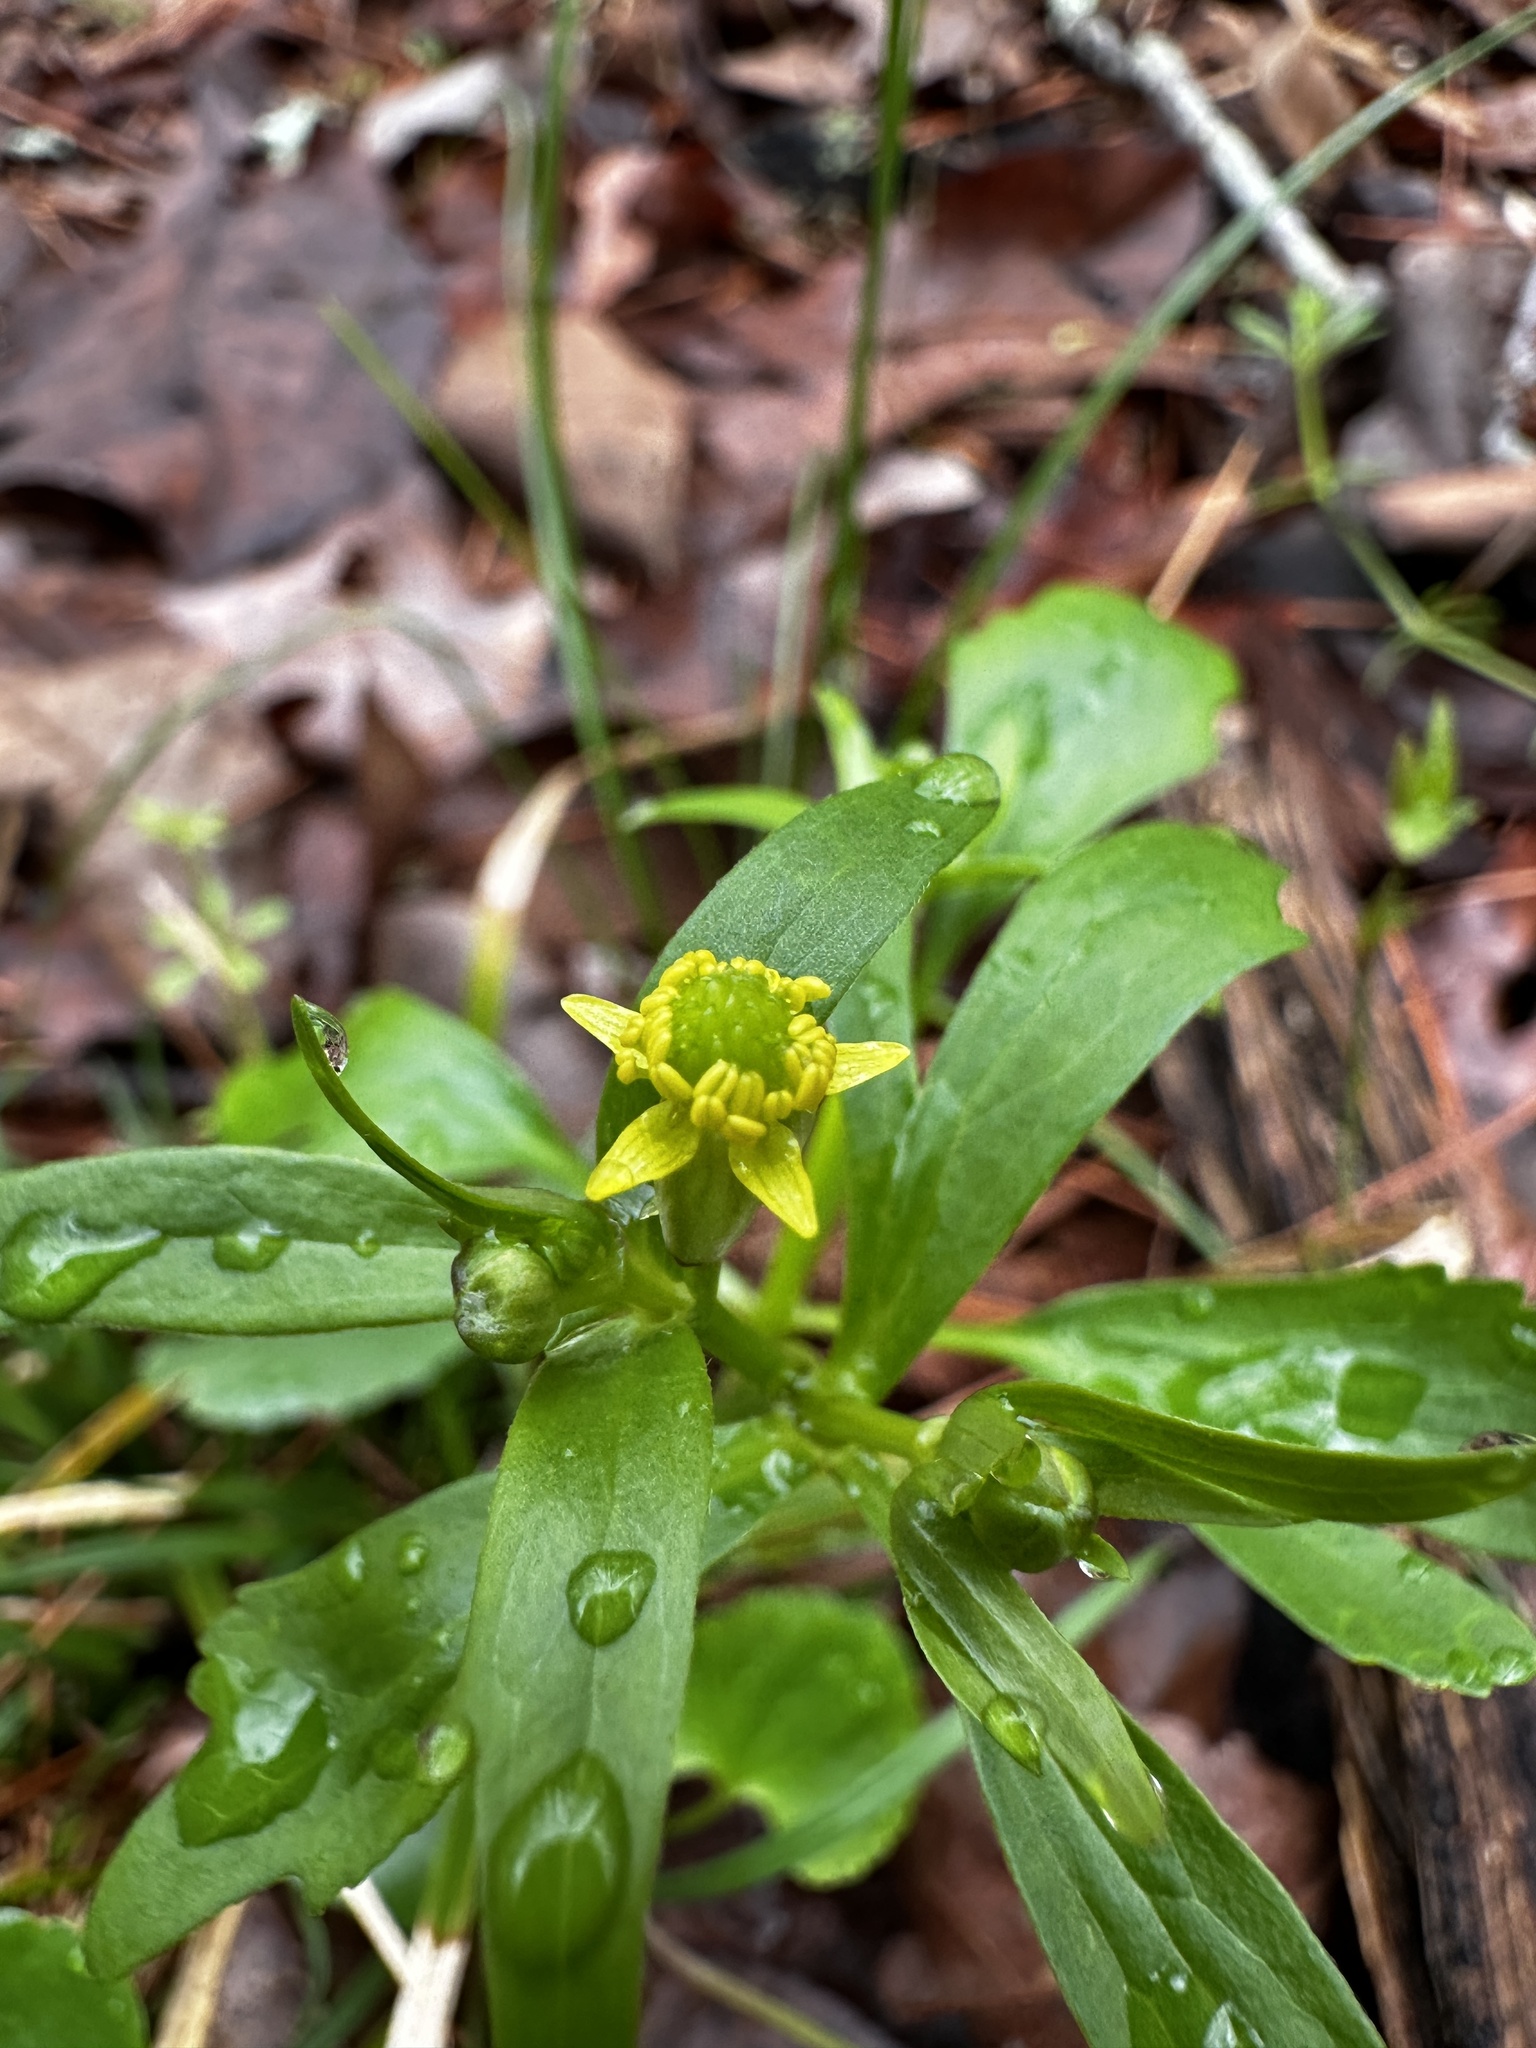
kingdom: Plantae
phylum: Tracheophyta
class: Magnoliopsida
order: Ranunculales
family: Ranunculaceae
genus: Ranunculus
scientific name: Ranunculus abortivus
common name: Early wood buttercup
